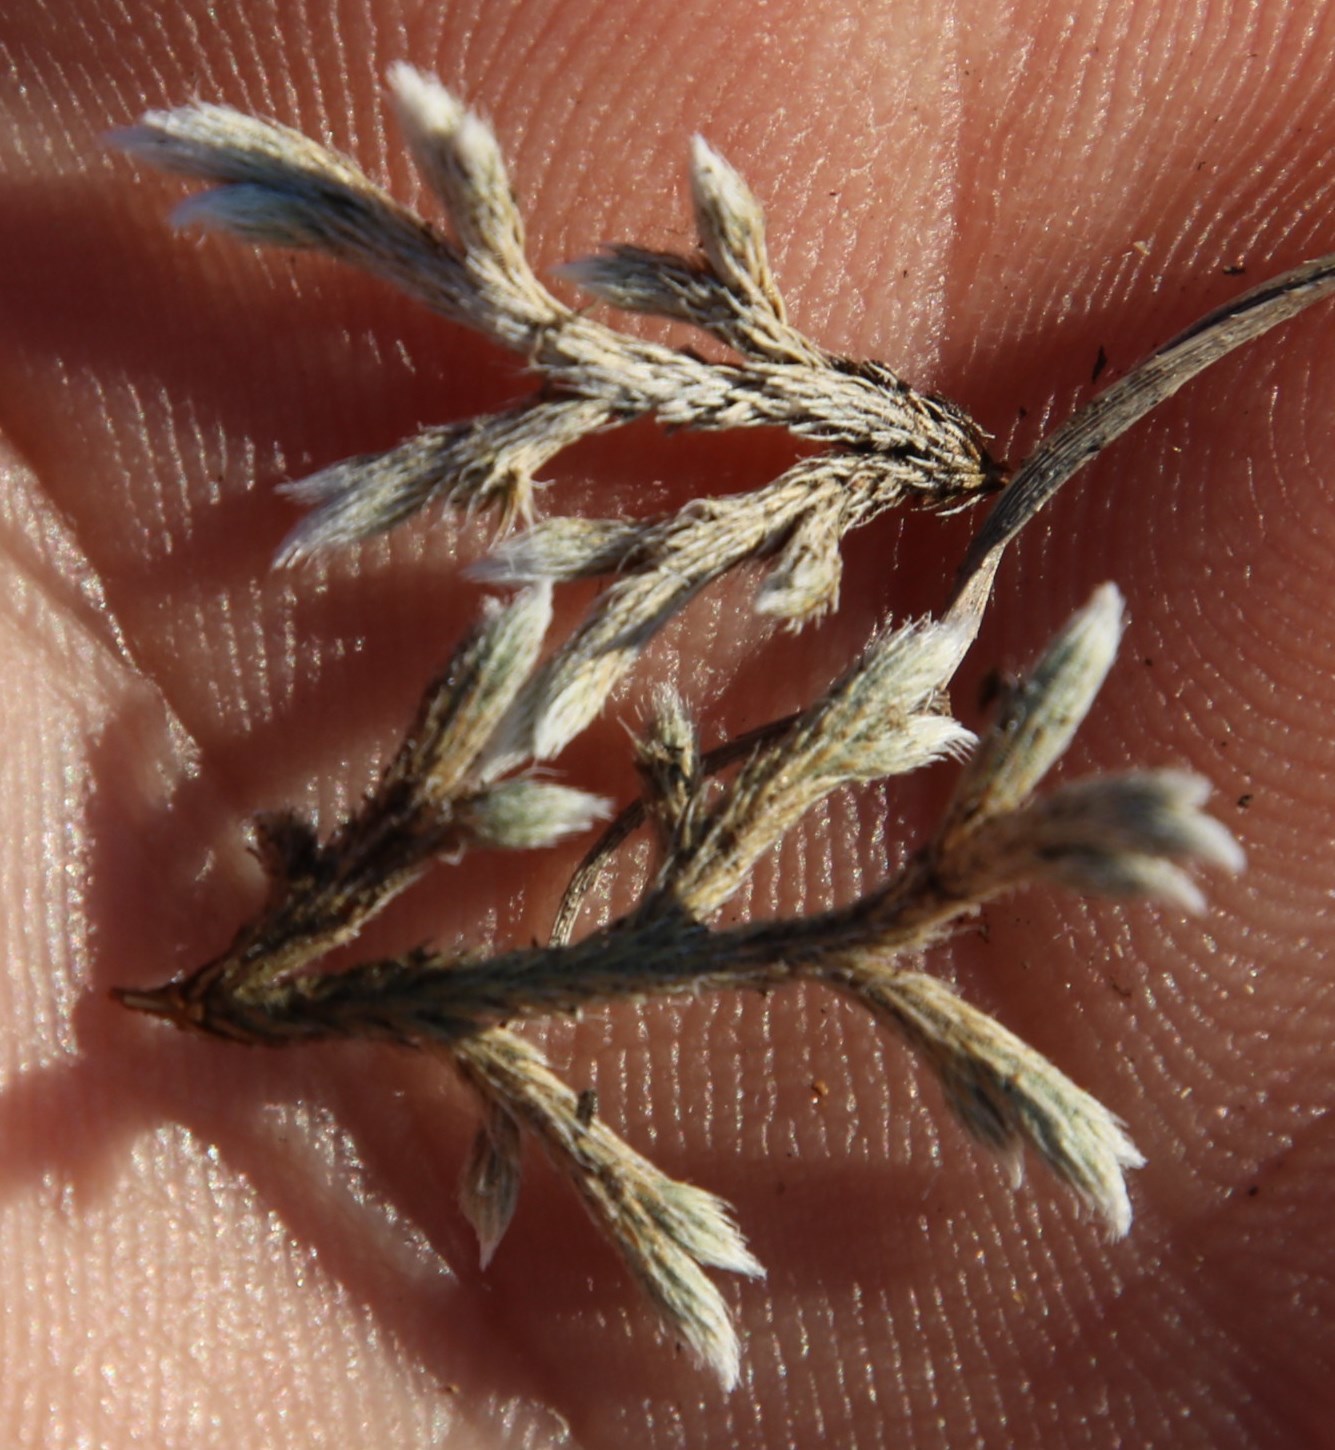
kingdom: Plantae
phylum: Tracheophyta
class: Lycopodiopsida
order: Selaginellales
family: Selaginellaceae
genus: Selaginella
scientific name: Selaginella dregei
